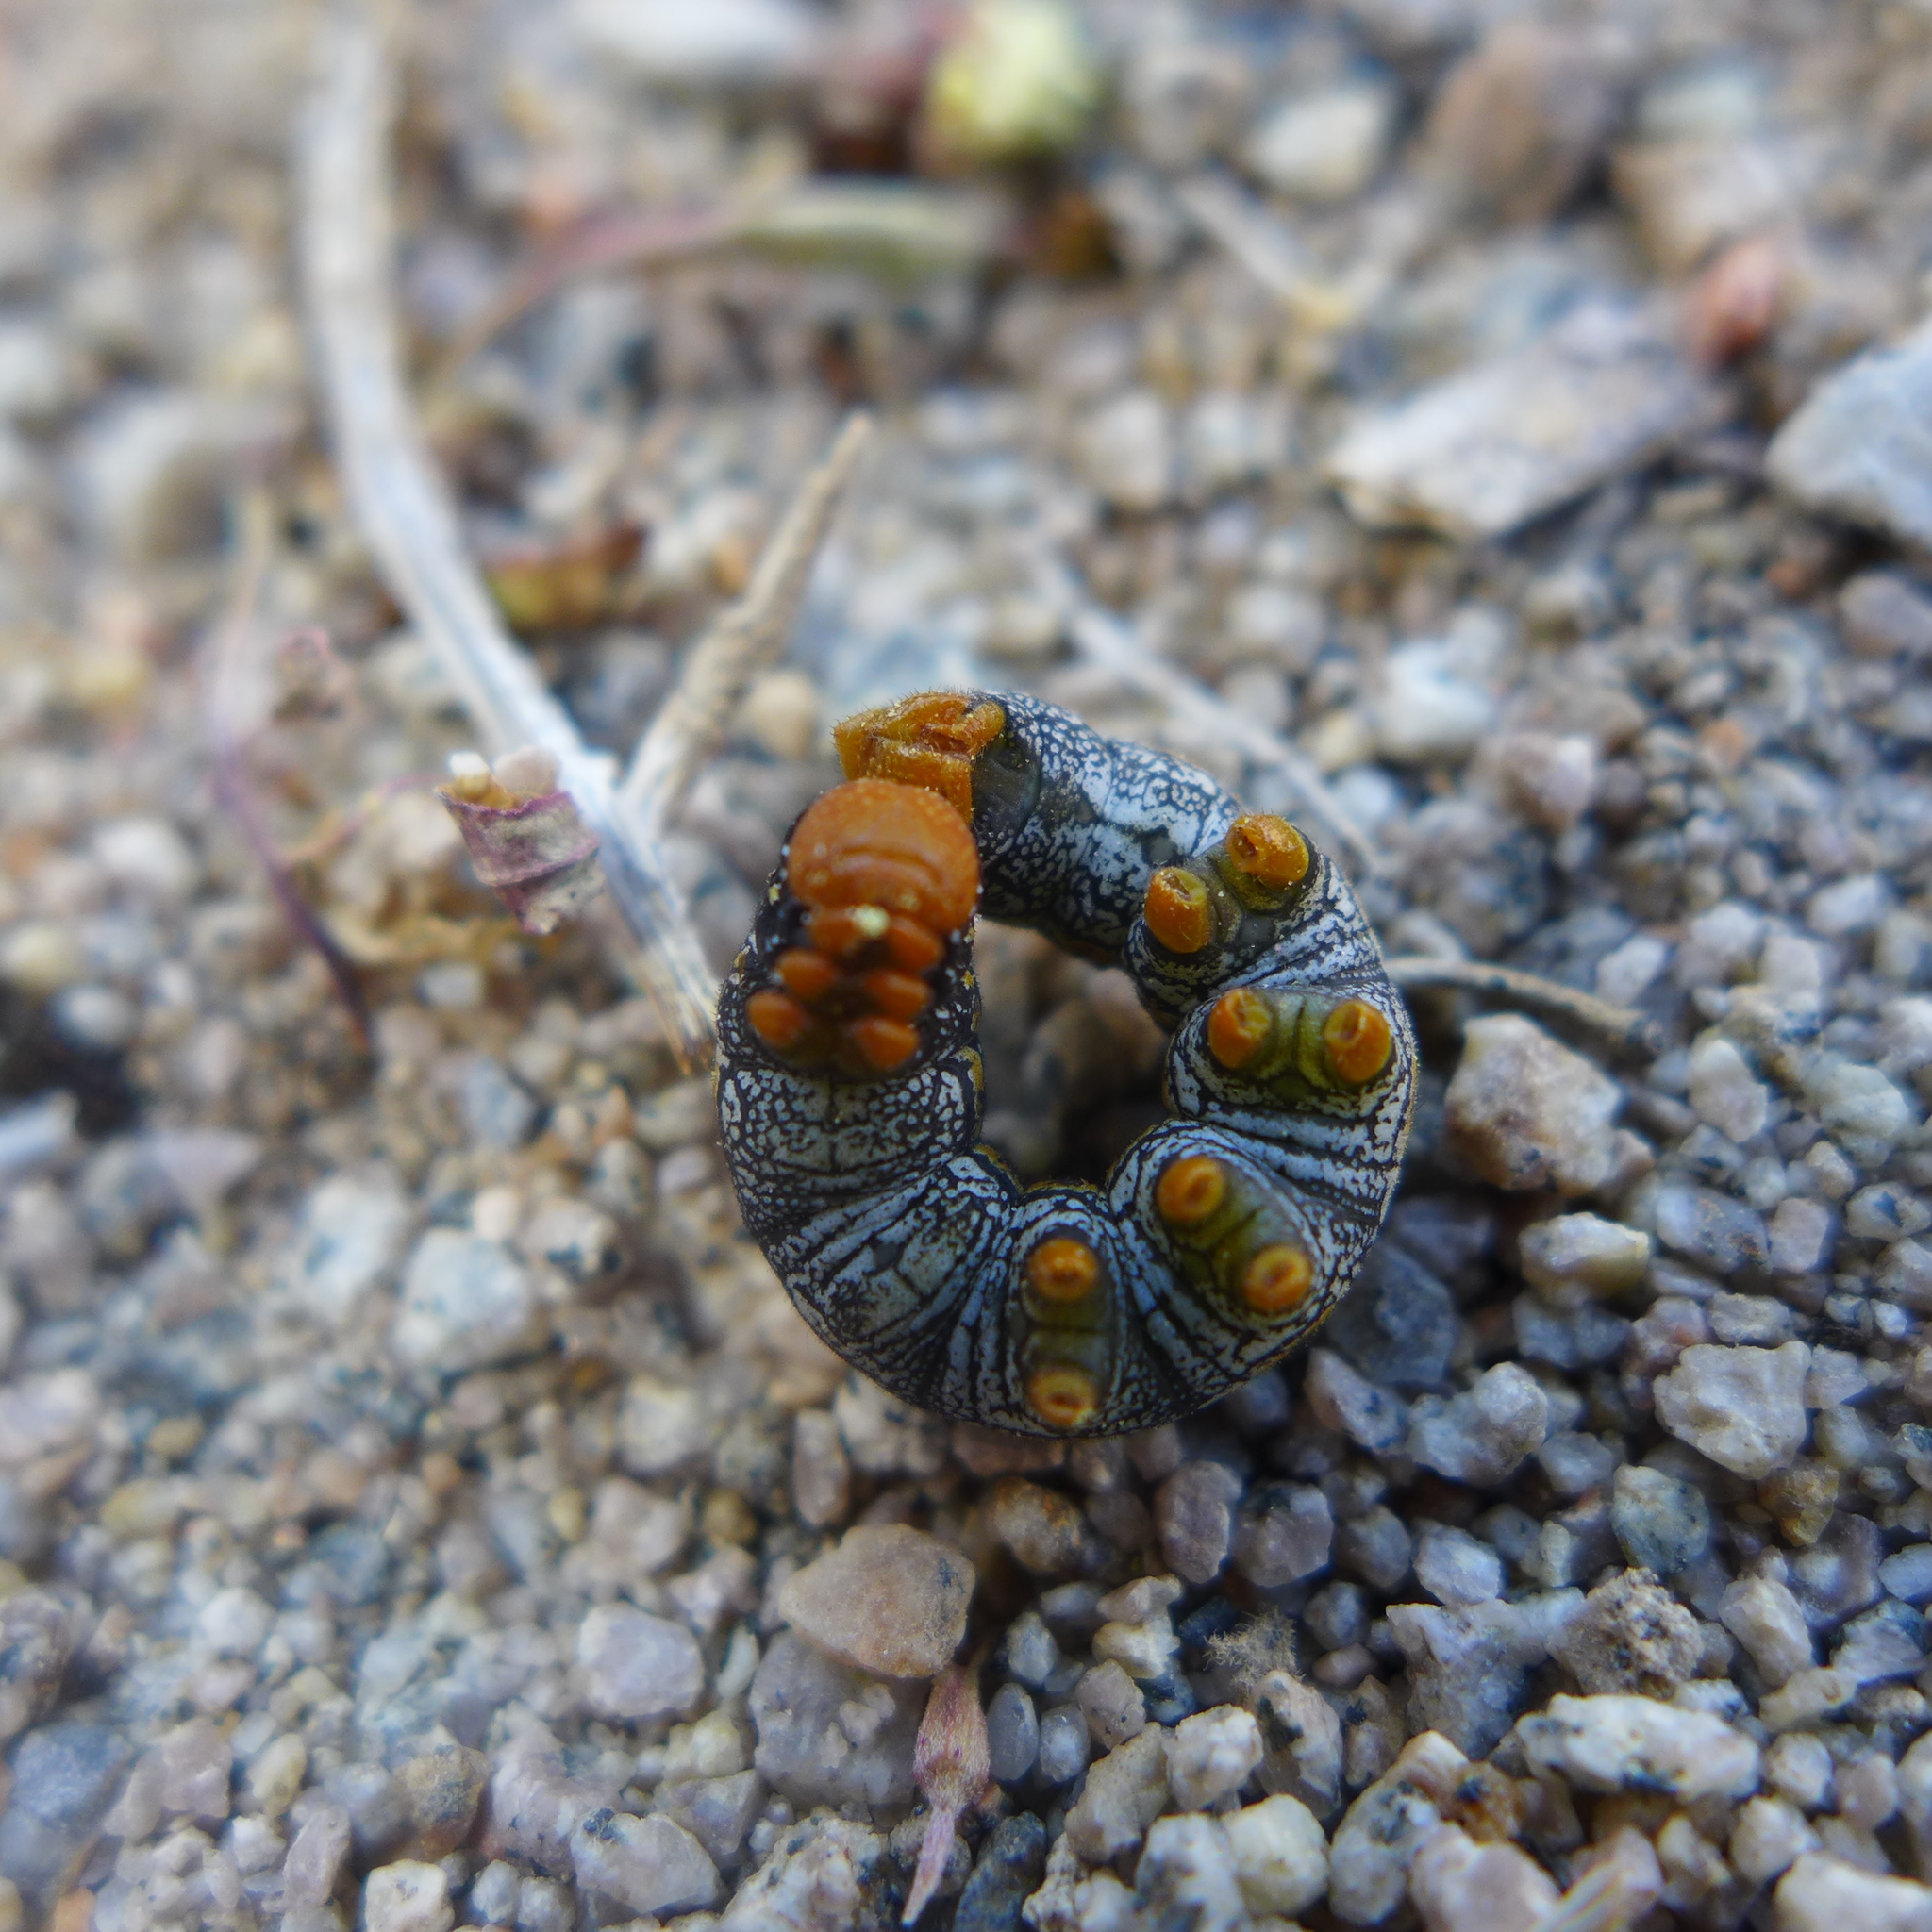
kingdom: Animalia
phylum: Arthropoda
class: Insecta
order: Lepidoptera
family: Sphingidae
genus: Hyles
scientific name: Hyles lineata
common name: White-lined sphinx
